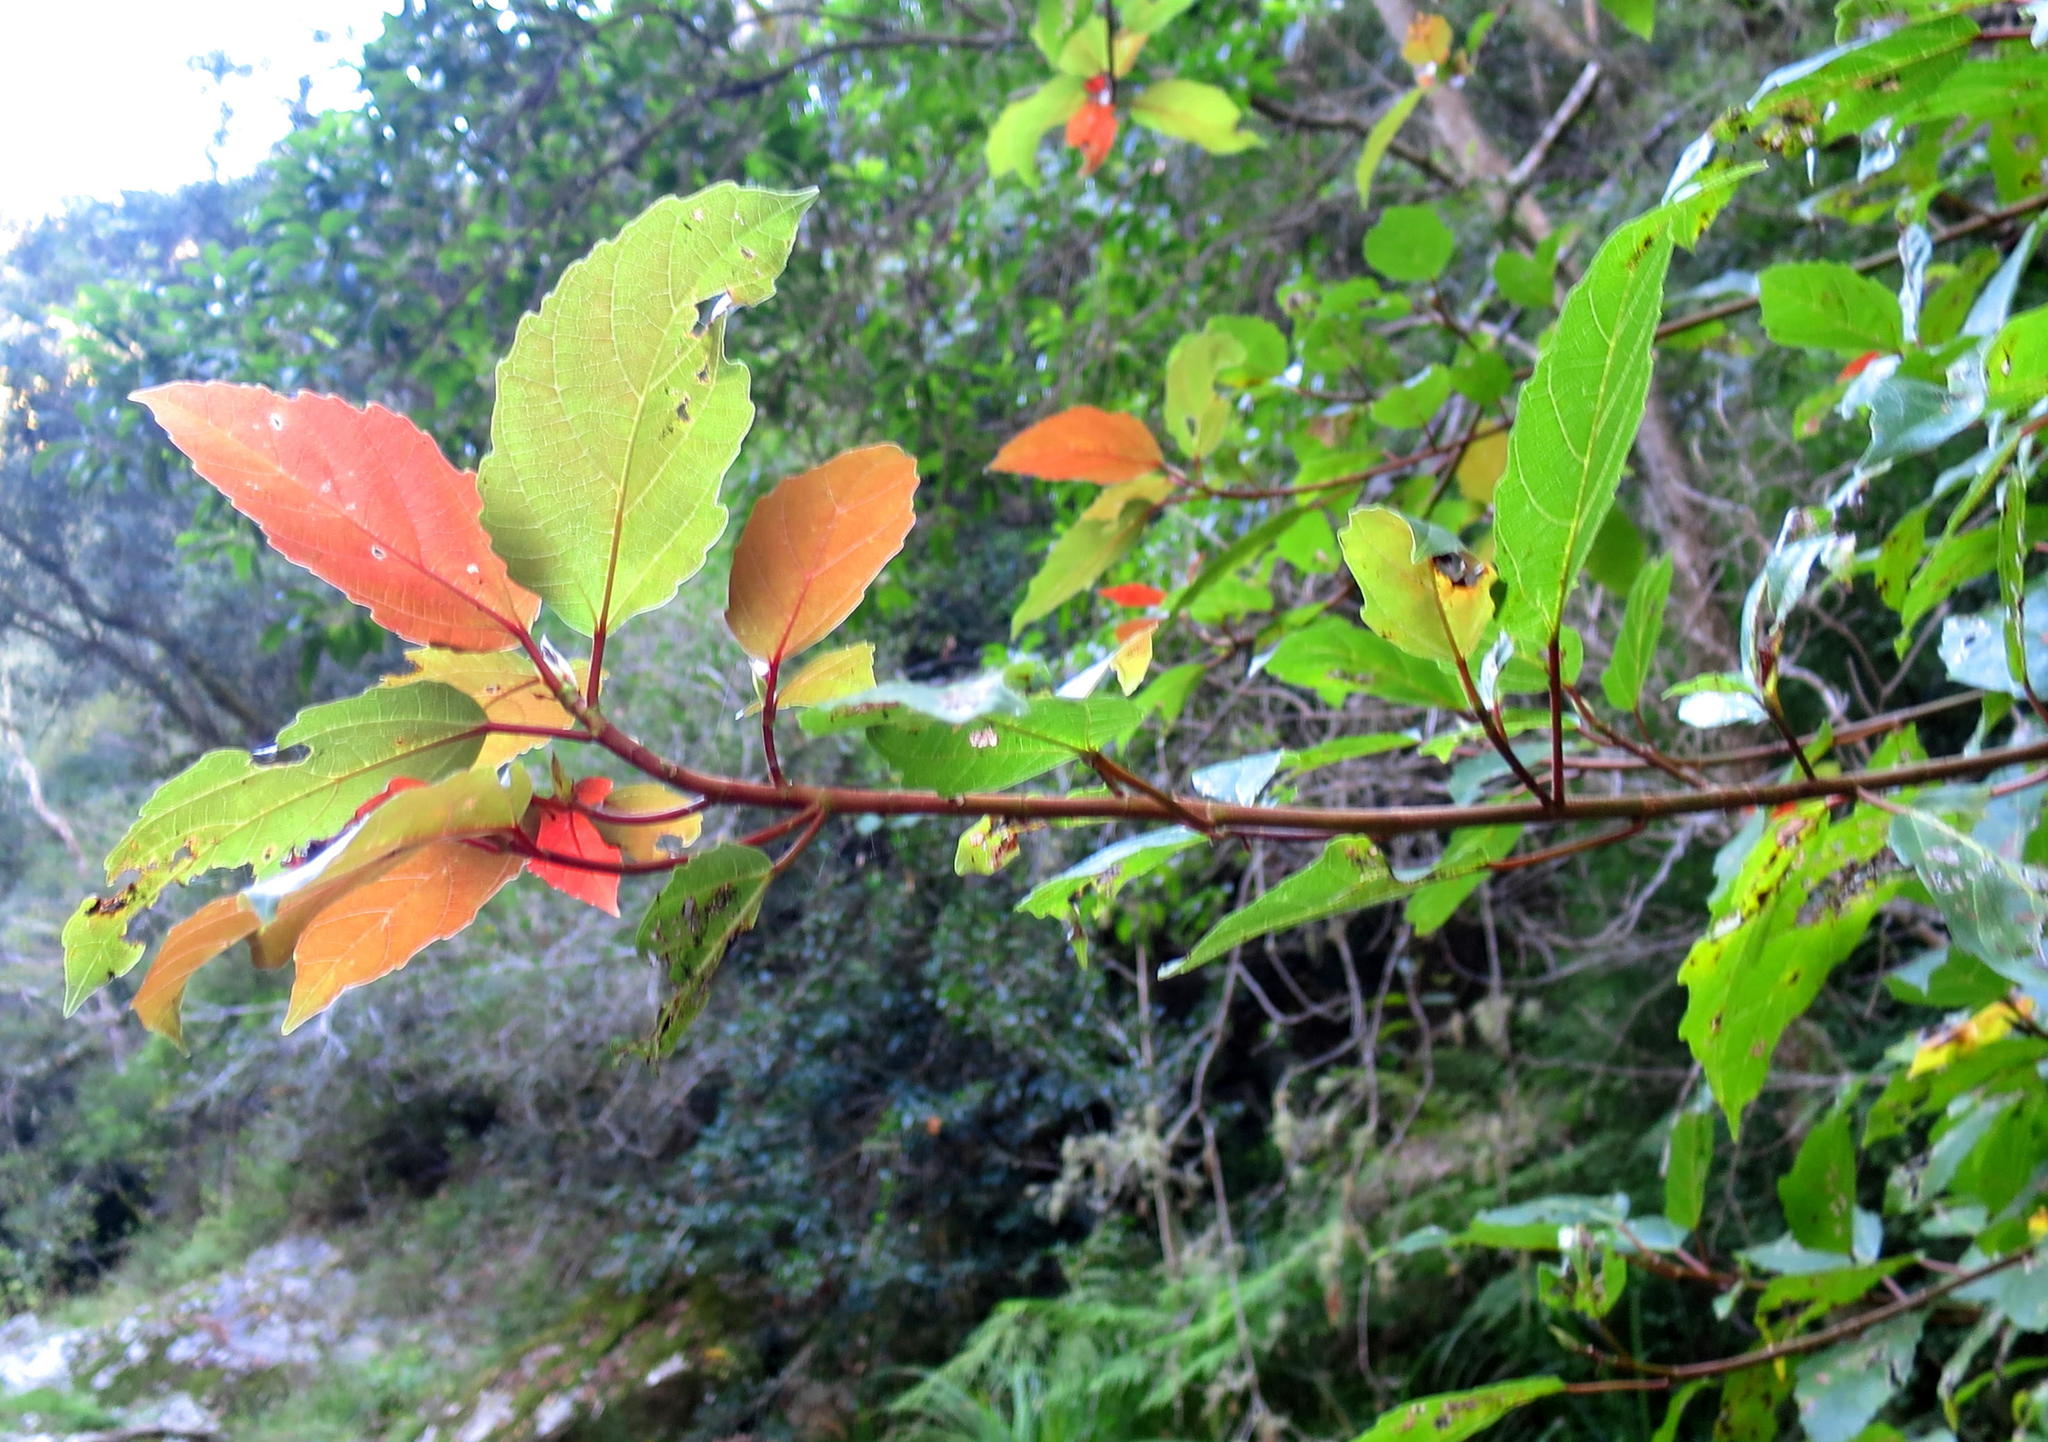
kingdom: Plantae
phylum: Tracheophyta
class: Magnoliopsida
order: Rosales
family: Moraceae
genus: Ficus
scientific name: Ficus sur
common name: Cape fig
